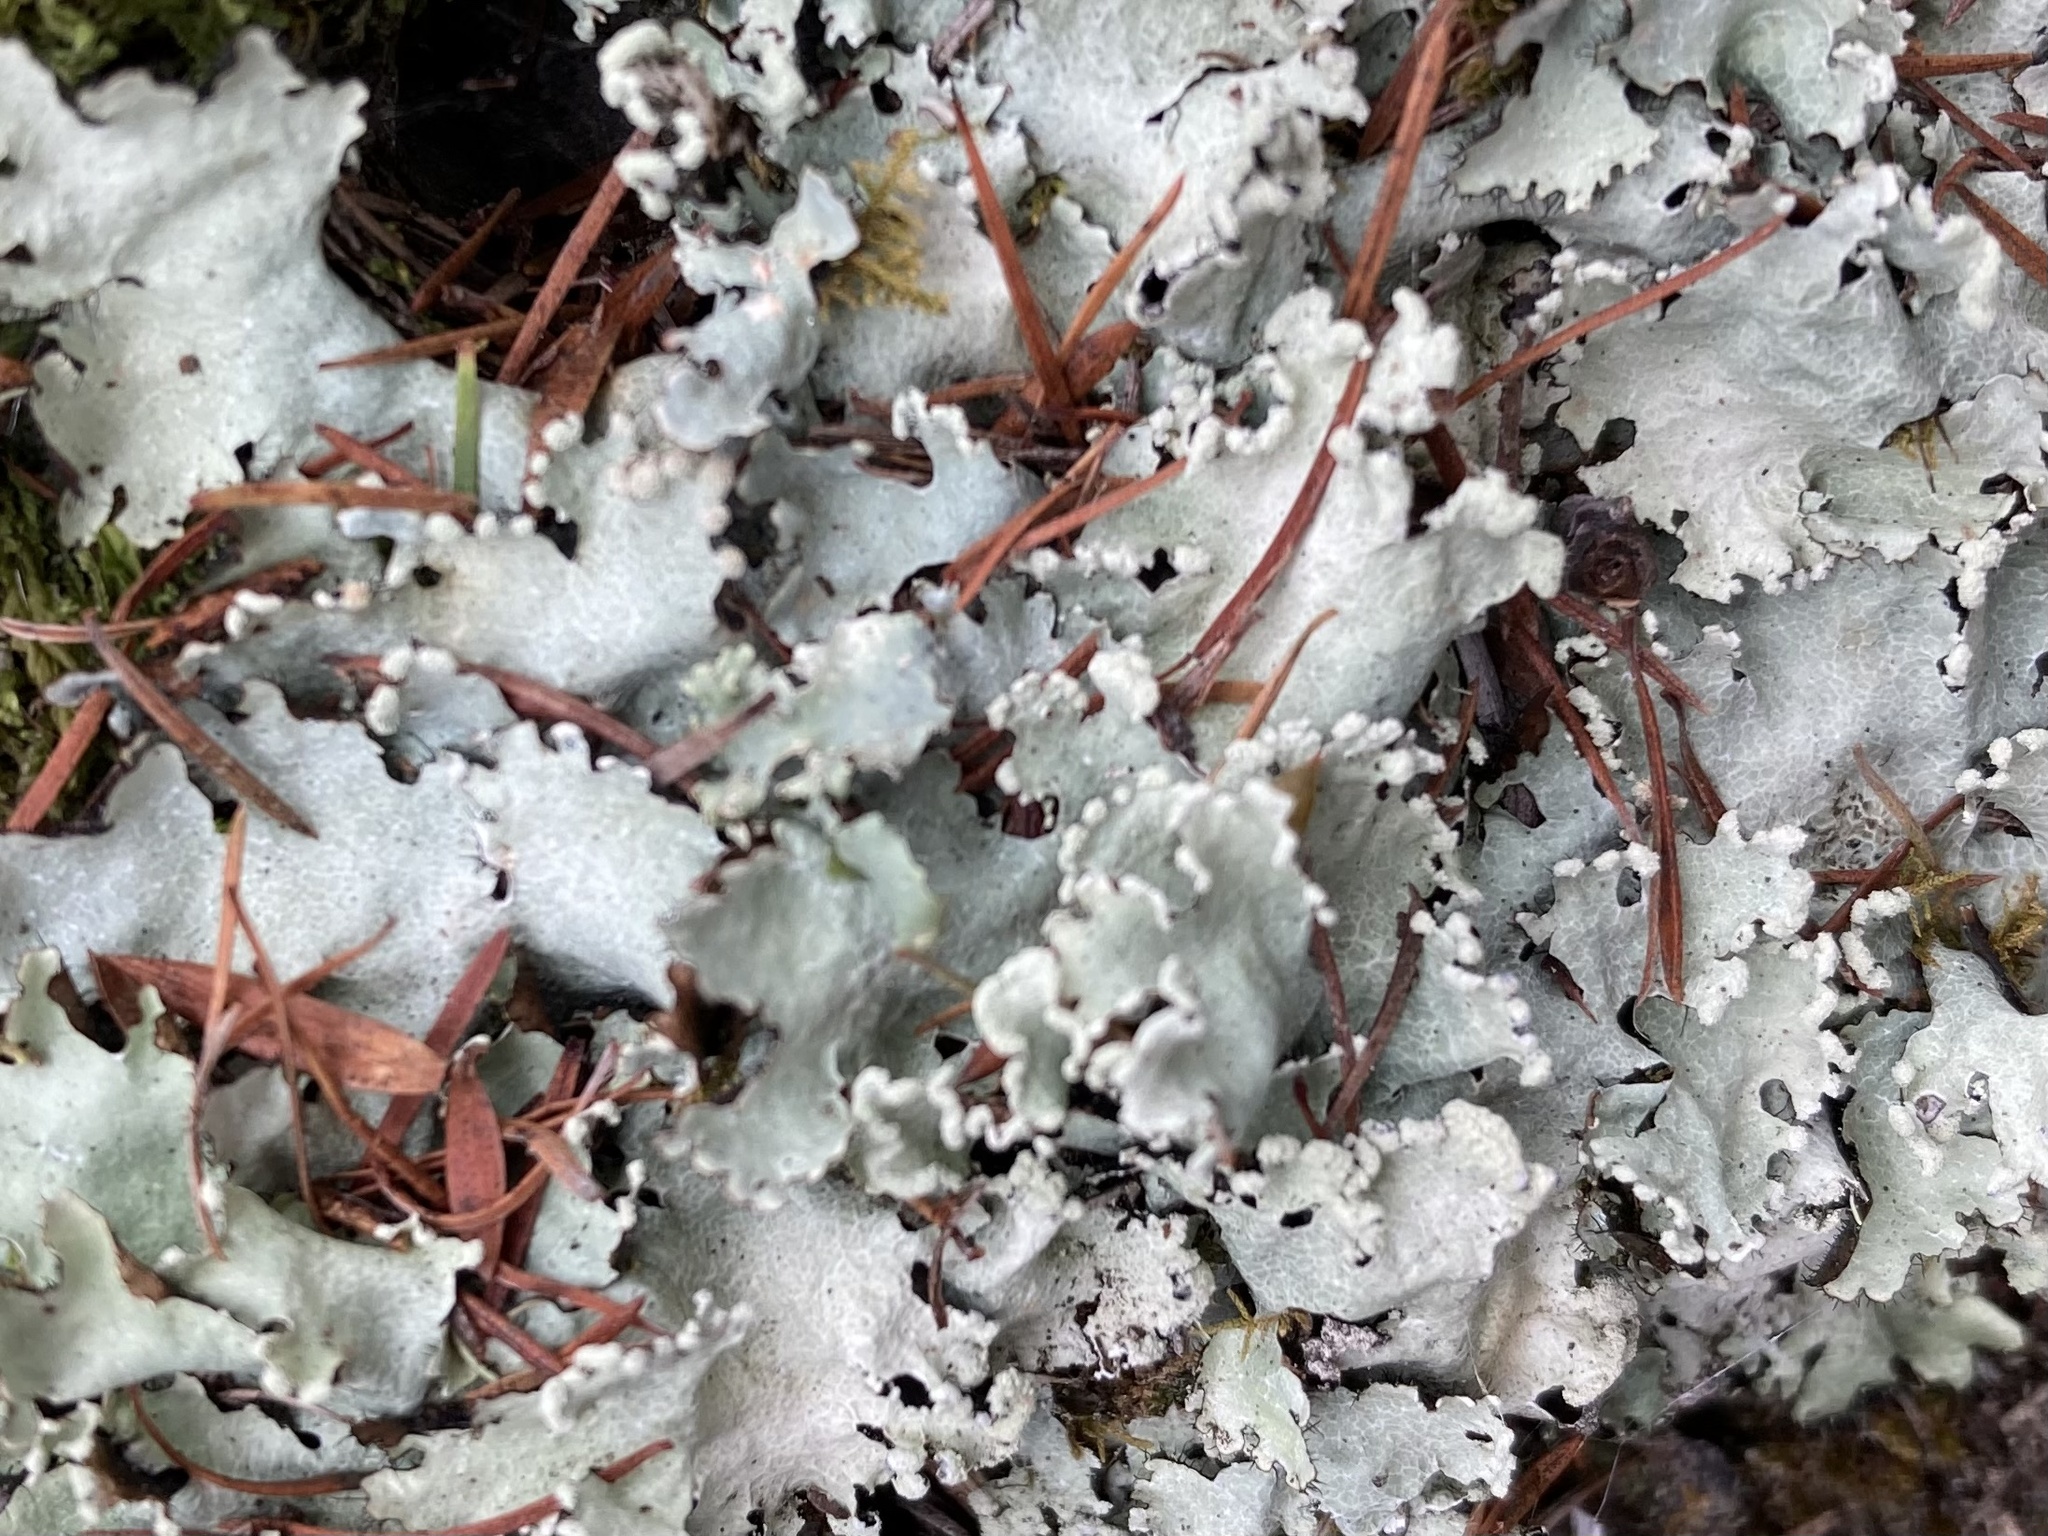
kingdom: Fungi
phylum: Ascomycota
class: Lecanoromycetes
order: Lecanorales
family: Parmeliaceae
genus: Parmotrema
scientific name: Parmotrema reticulatum
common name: Black sheet lichen
